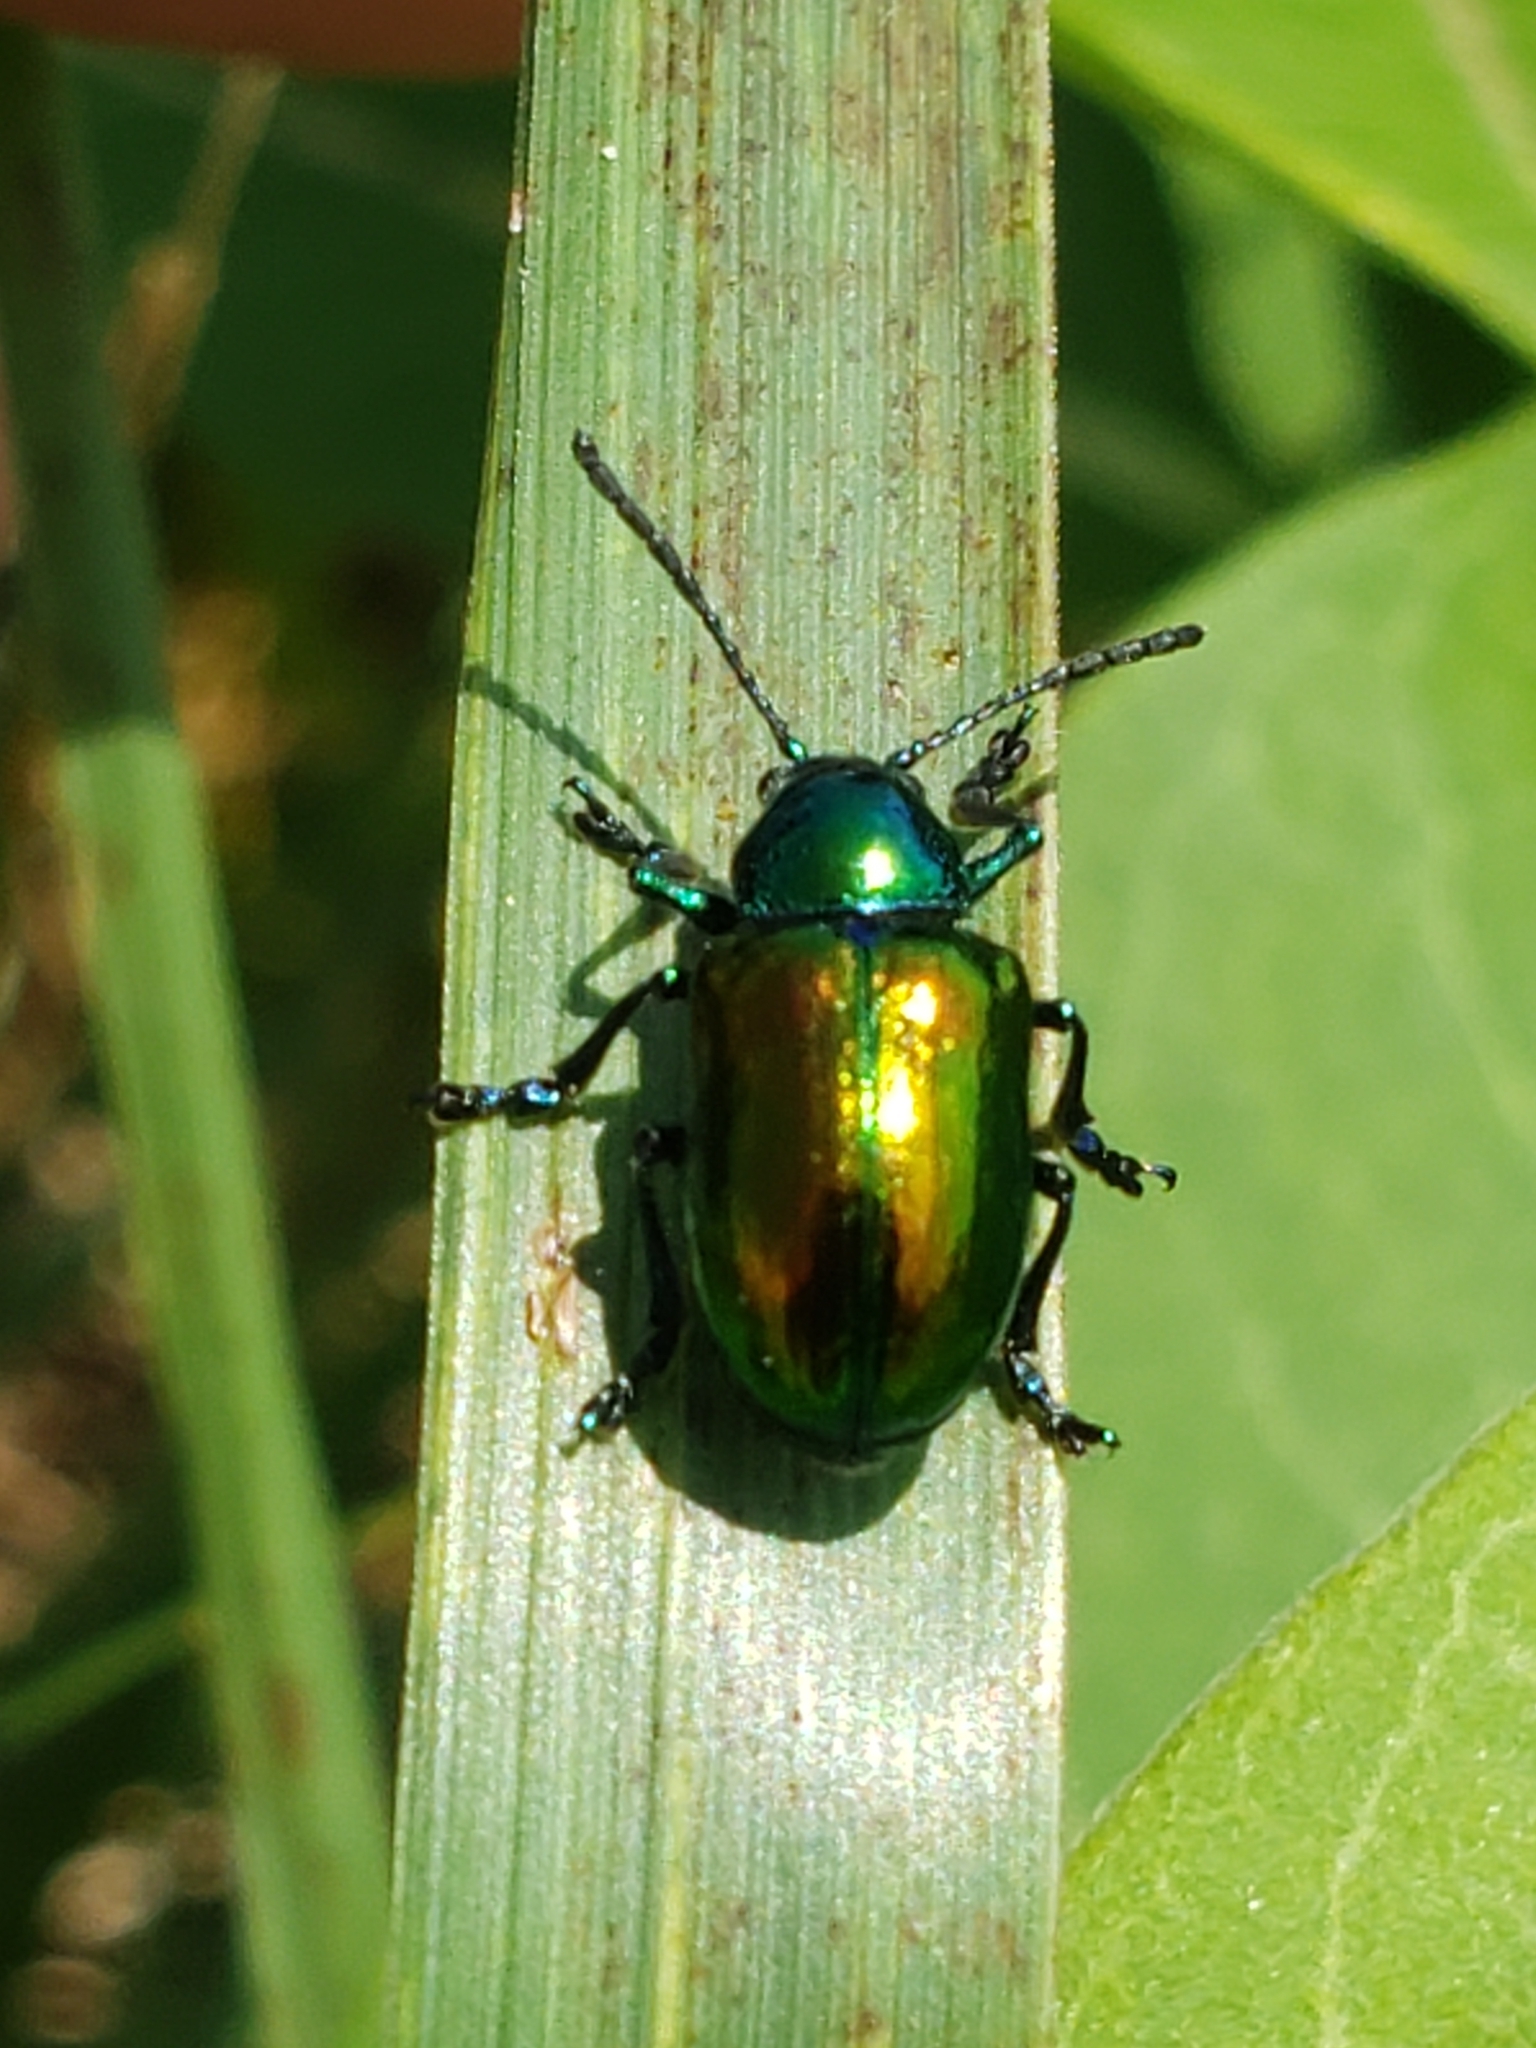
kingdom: Animalia
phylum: Arthropoda
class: Insecta
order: Coleoptera
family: Chrysomelidae
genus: Chrysochus
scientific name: Chrysochus auratus
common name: Dogbane leaf beetle
